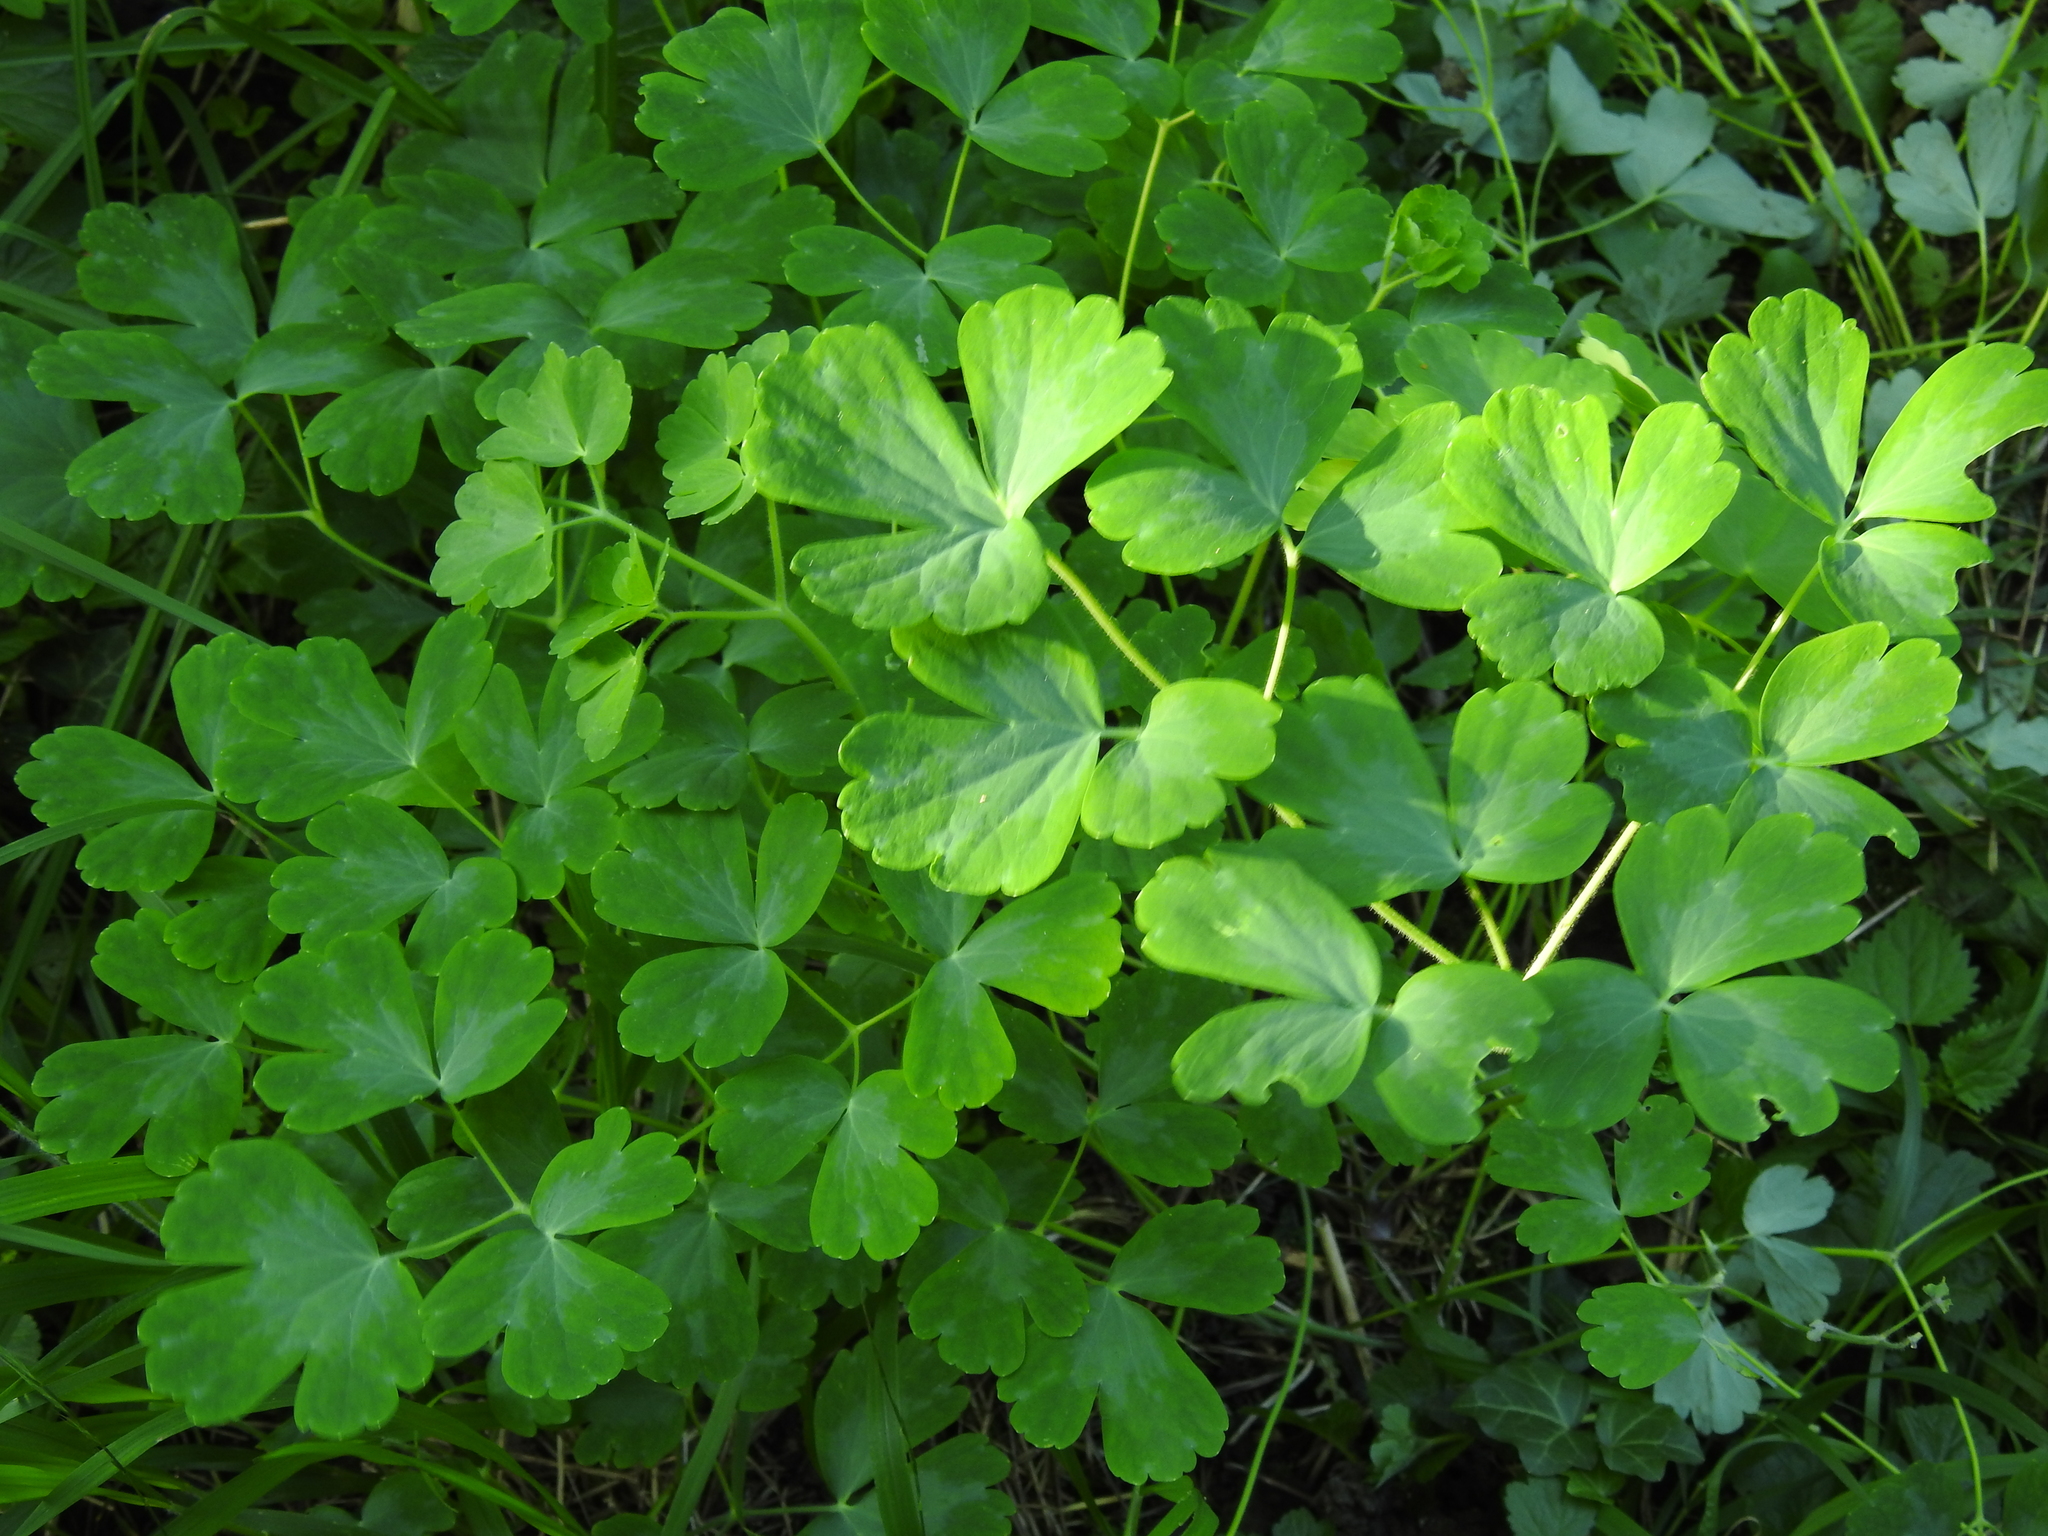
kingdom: Plantae
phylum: Tracheophyta
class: Magnoliopsida
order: Ranunculales
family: Ranunculaceae
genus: Aquilegia
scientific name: Aquilegia vulgaris
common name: Columbine
